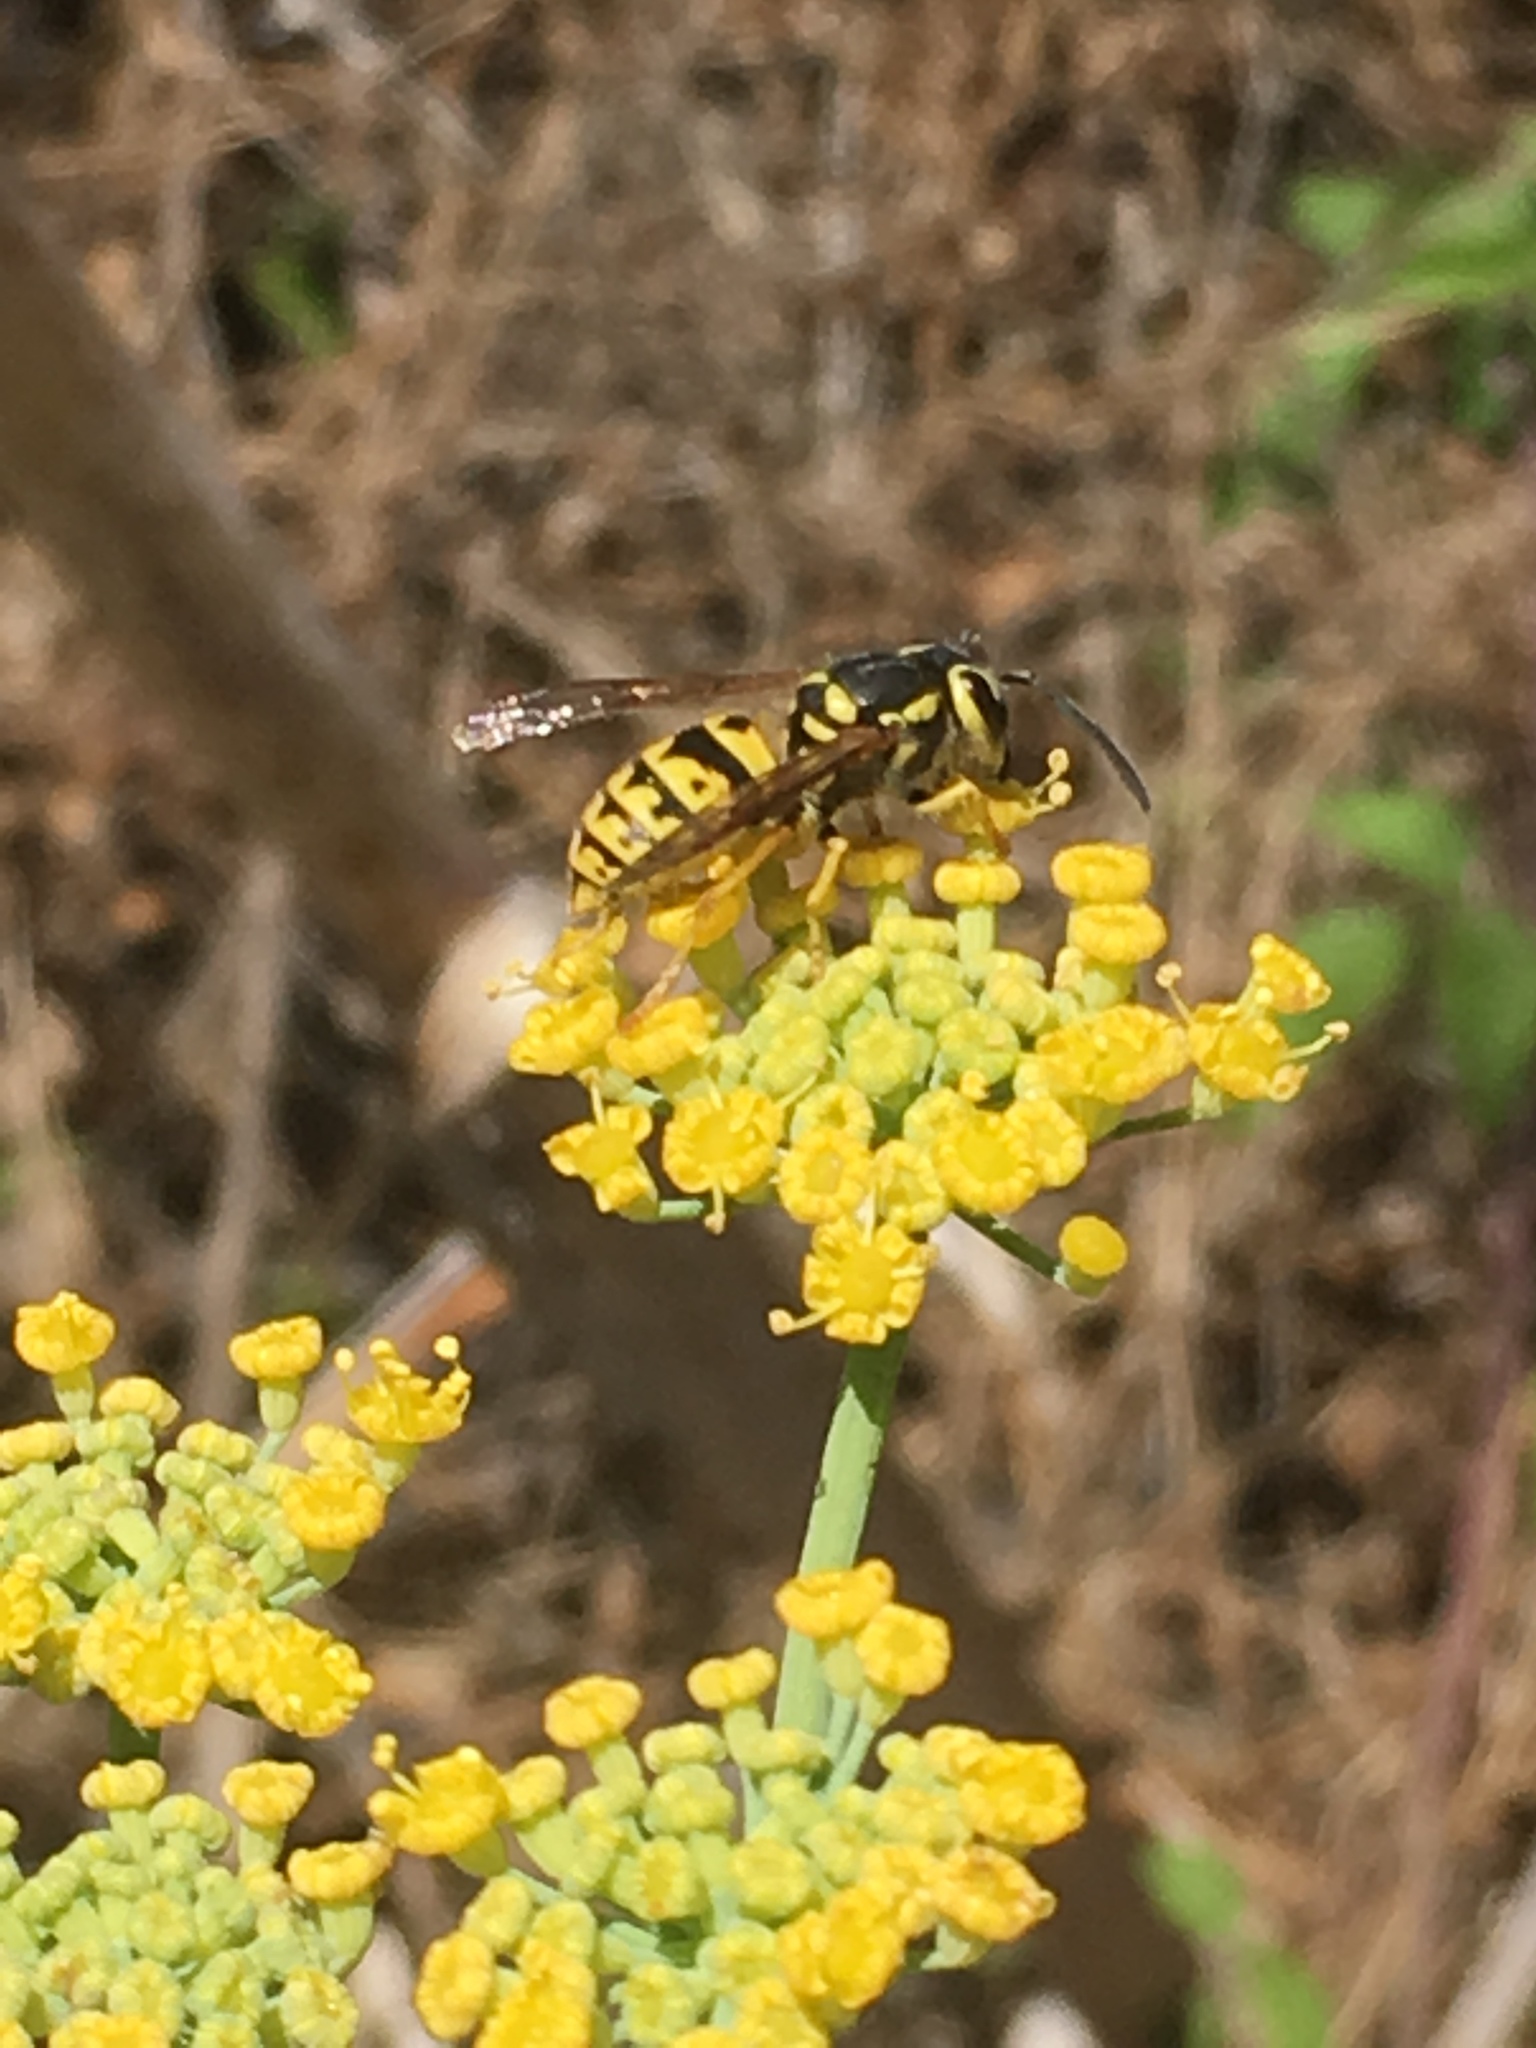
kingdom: Animalia
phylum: Arthropoda
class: Insecta
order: Hymenoptera
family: Vespidae
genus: Vespula
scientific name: Vespula pensylvanica
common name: Western yellowjacket
